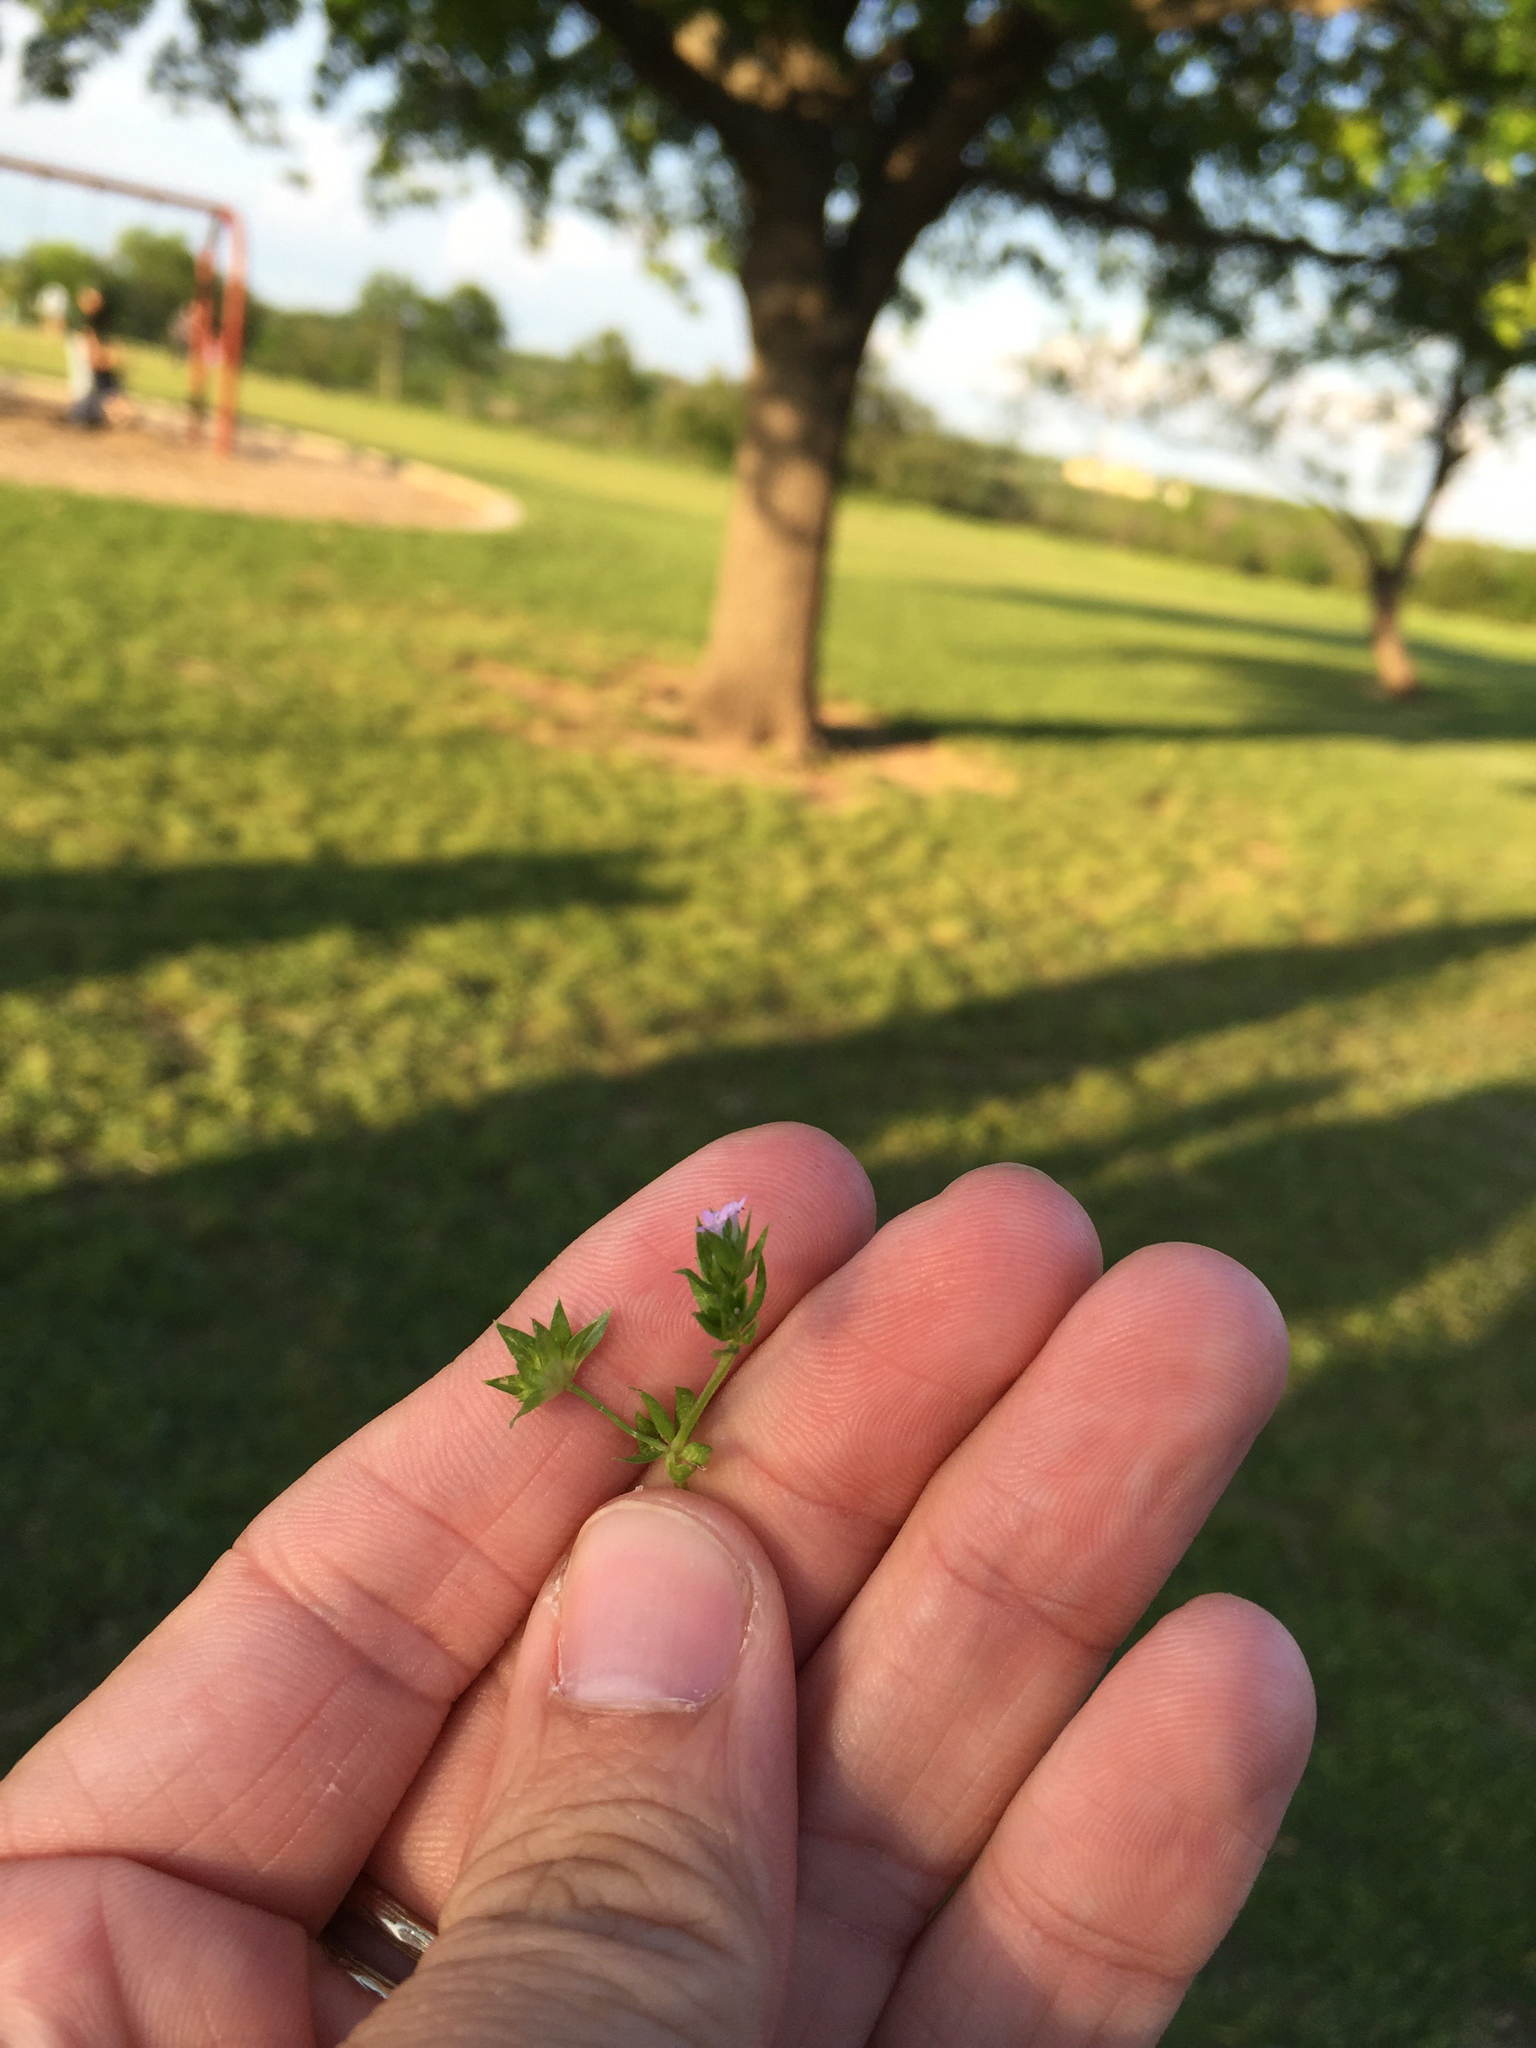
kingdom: Plantae
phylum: Tracheophyta
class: Magnoliopsida
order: Gentianales
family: Rubiaceae
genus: Sherardia
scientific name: Sherardia arvensis
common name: Field madder
